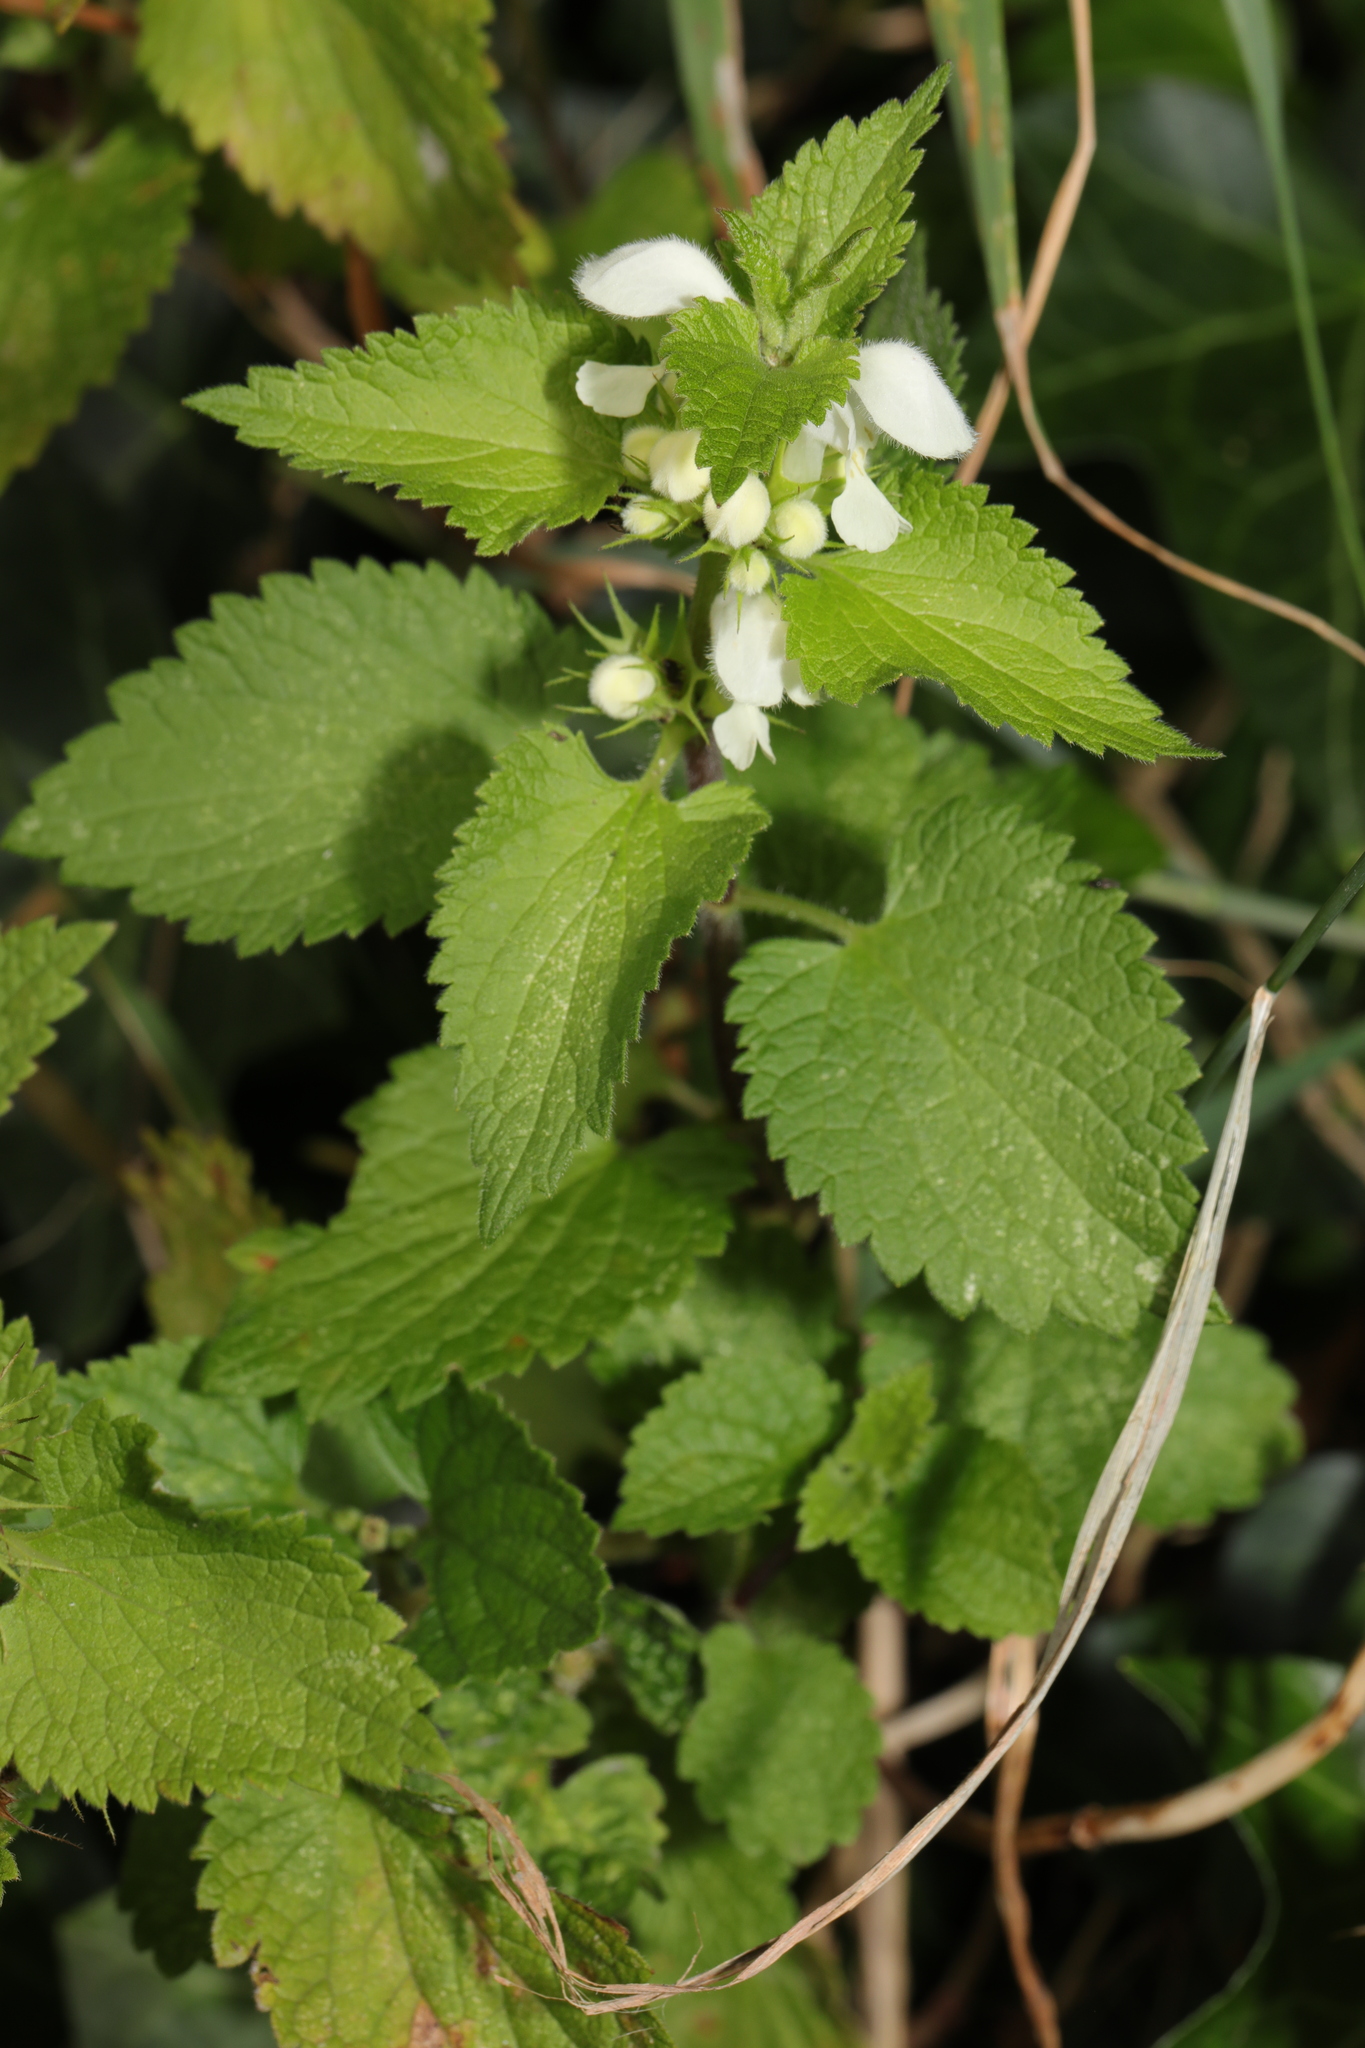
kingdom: Plantae
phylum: Tracheophyta
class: Magnoliopsida
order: Lamiales
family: Lamiaceae
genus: Lamium
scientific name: Lamium album
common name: White dead-nettle
